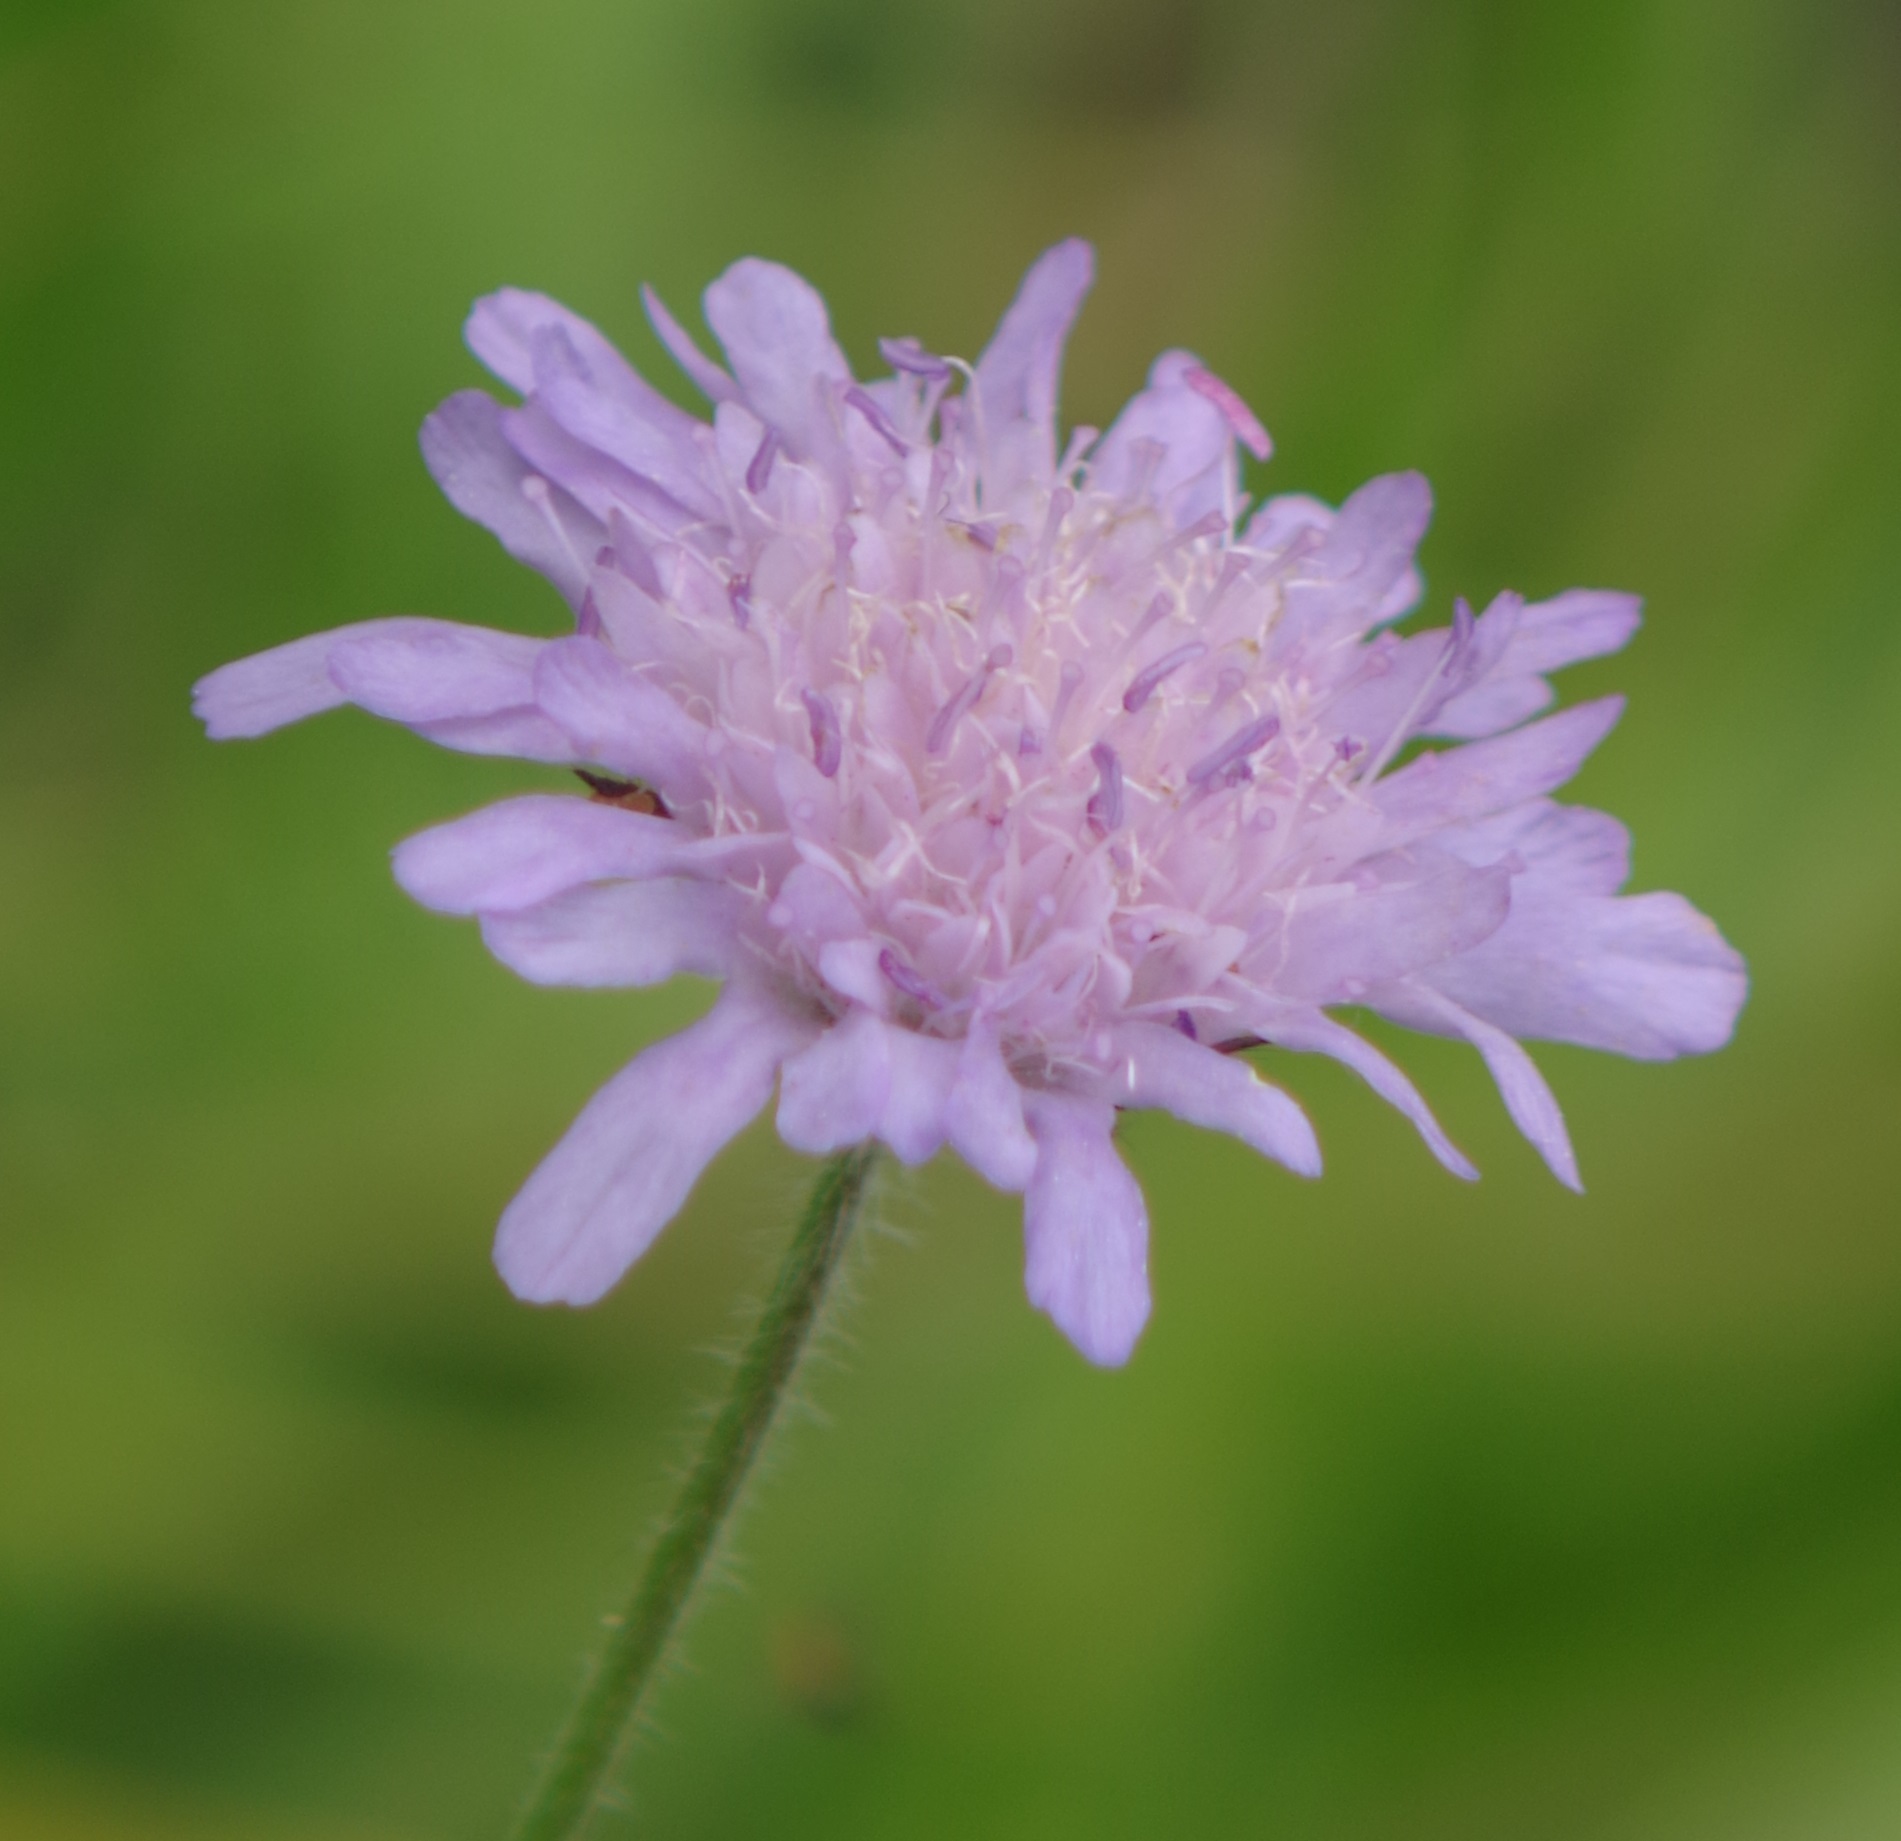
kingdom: Plantae
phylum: Tracheophyta
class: Magnoliopsida
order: Dipsacales
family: Caprifoliaceae
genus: Knautia
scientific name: Knautia arvensis
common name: Field scabiosa
